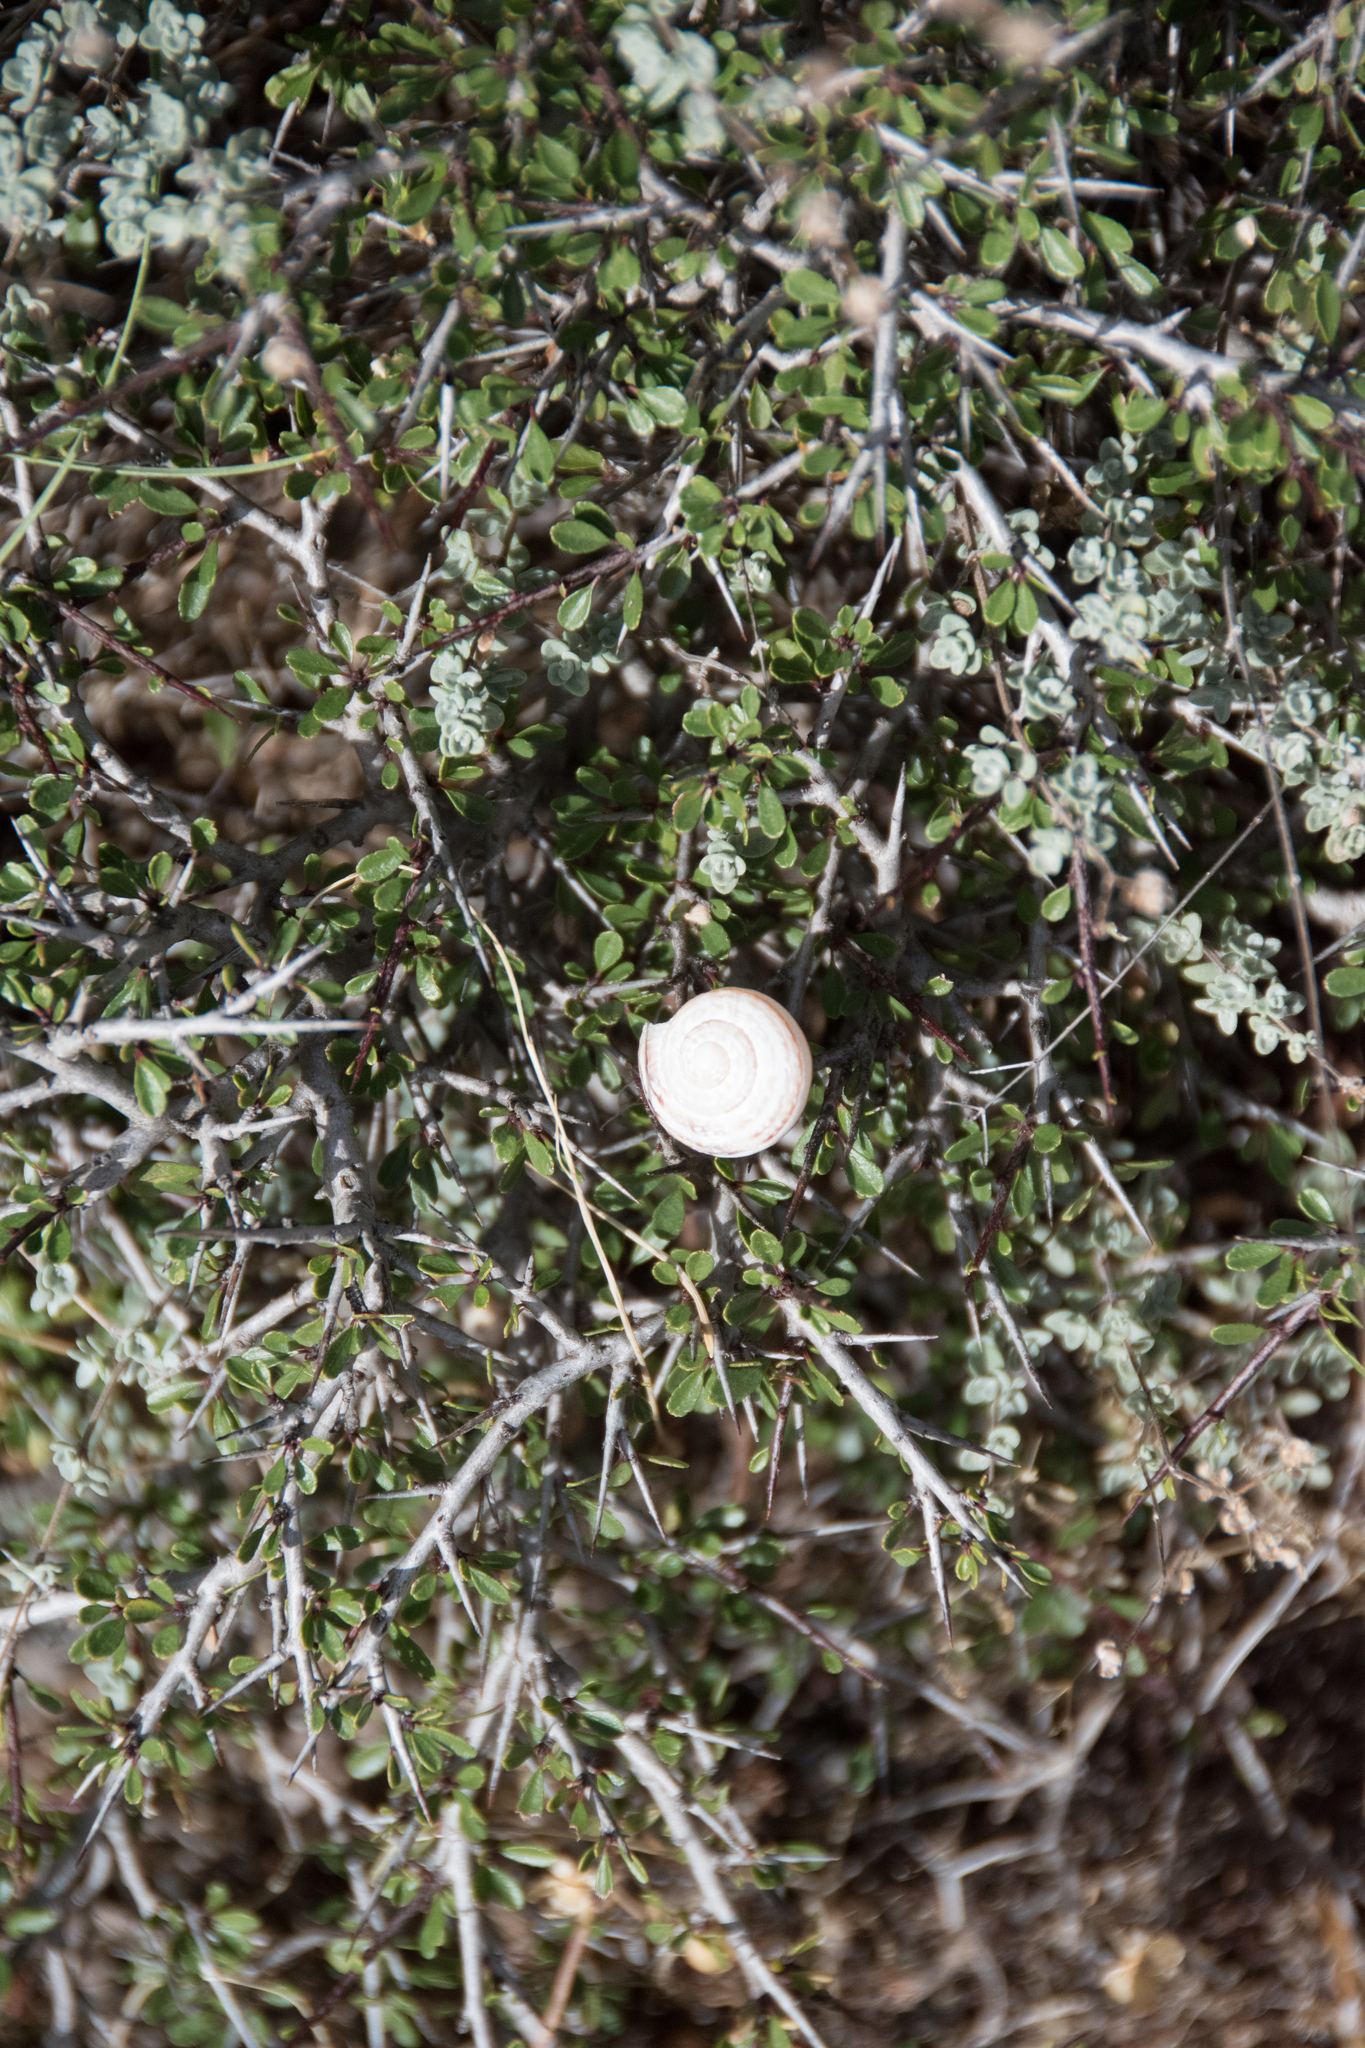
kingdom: Animalia
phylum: Mollusca
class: Gastropoda
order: Stylommatophora
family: Helicidae
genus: Eobania
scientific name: Eobania vermiculata
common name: Chocolateband snail
